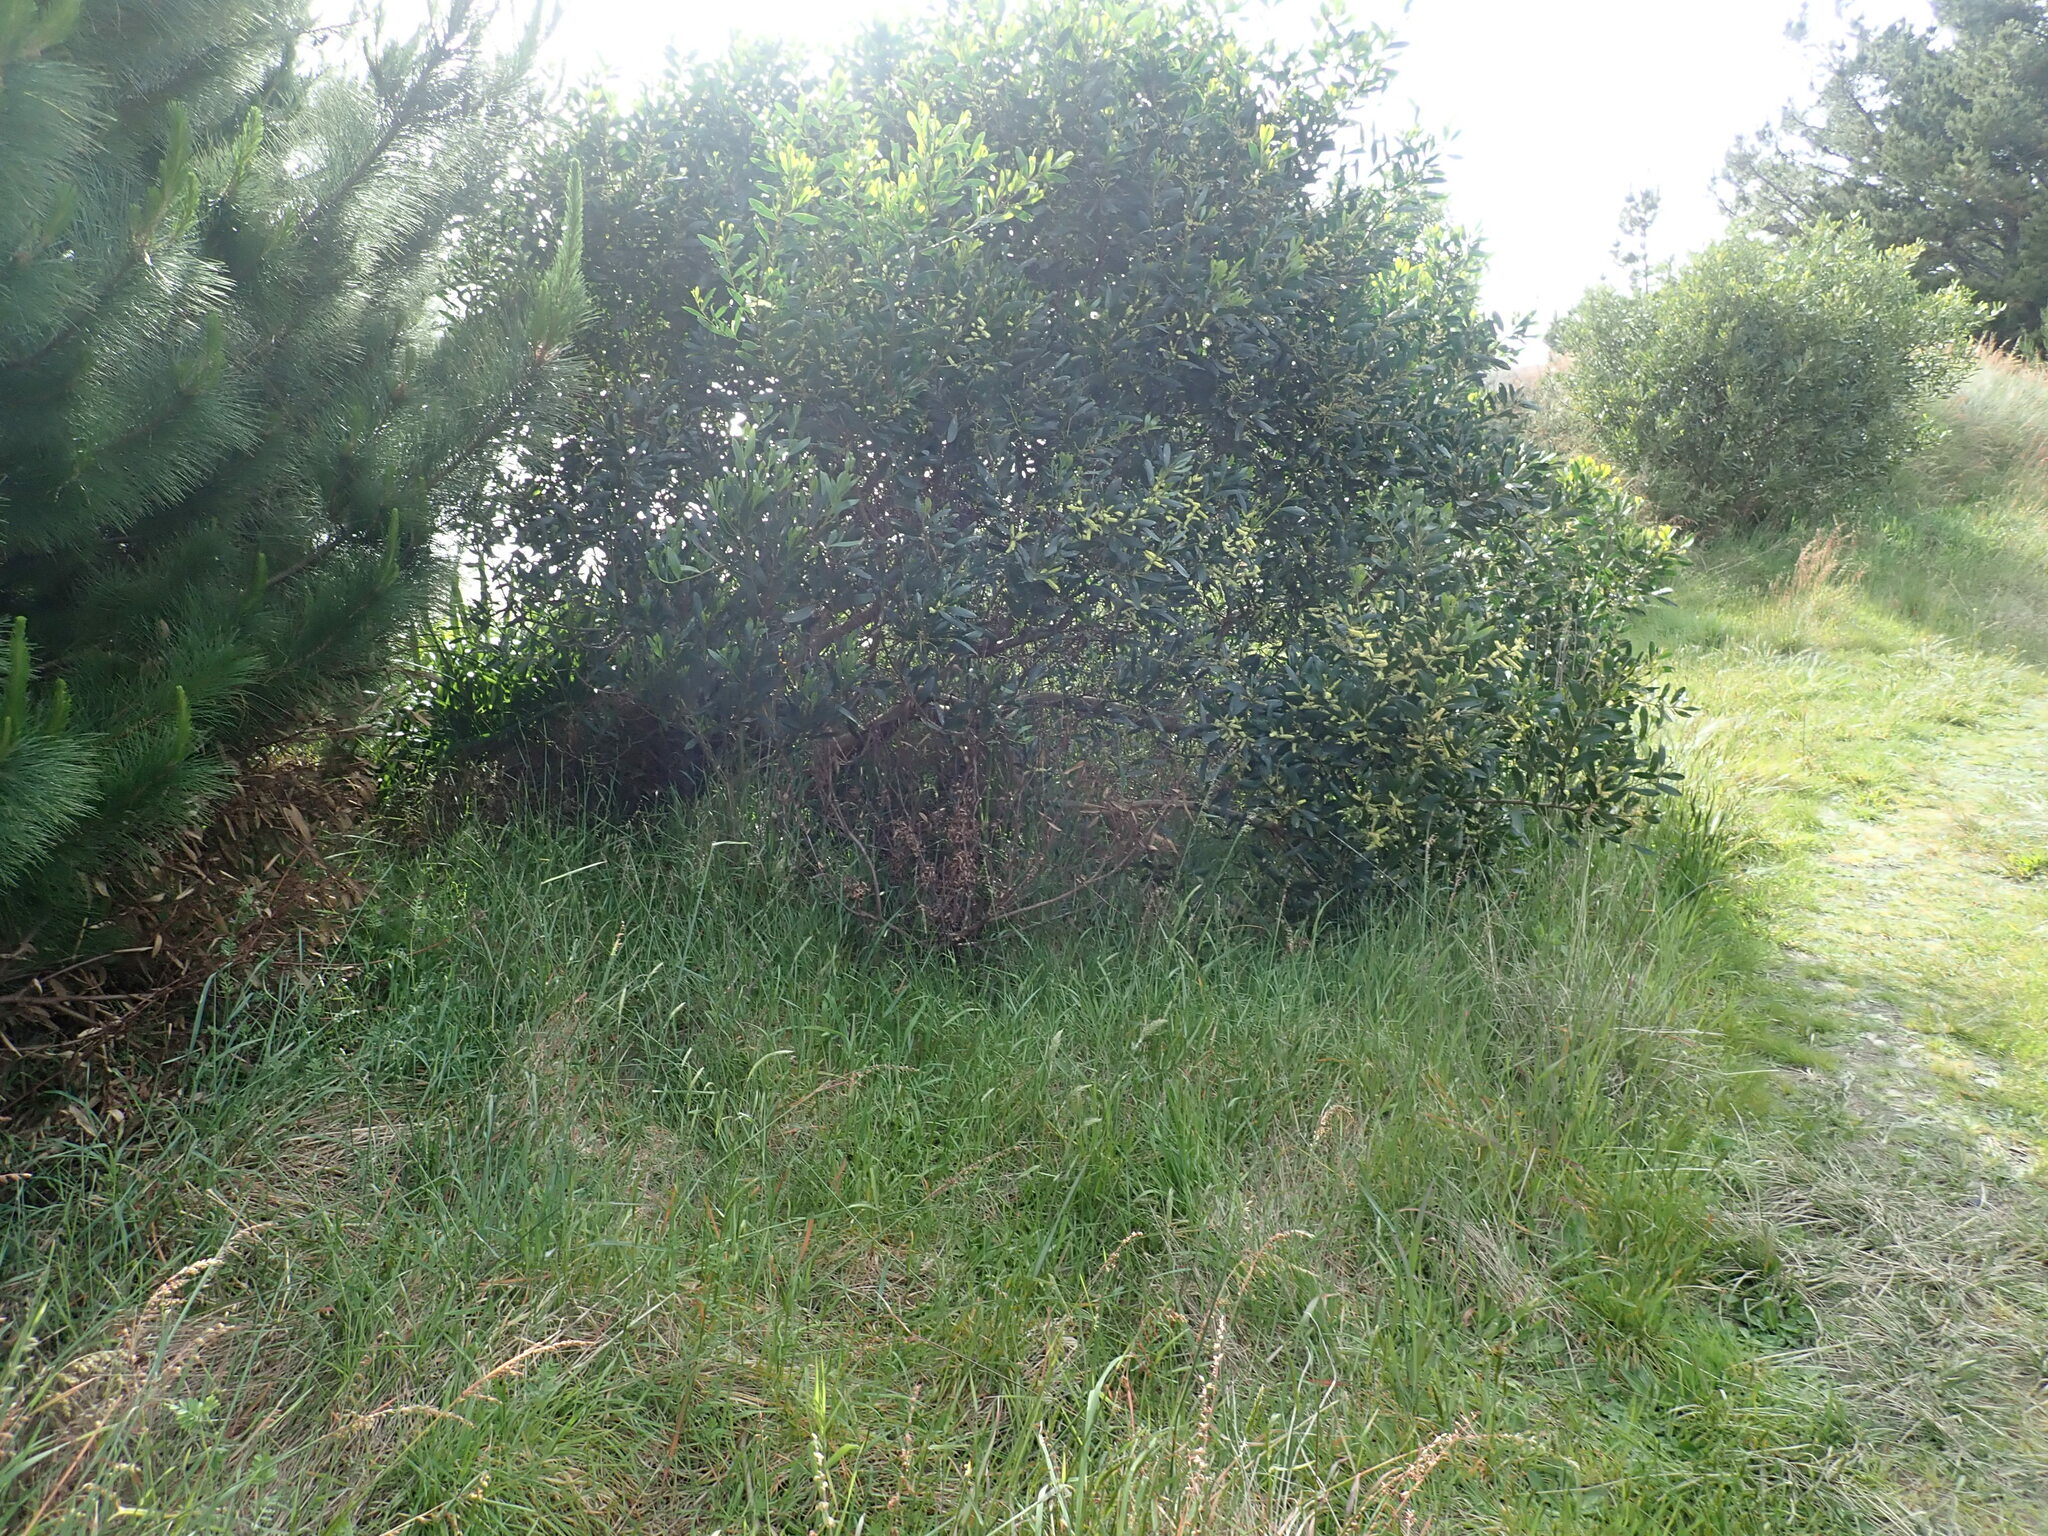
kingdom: Plantae
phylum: Tracheophyta
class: Magnoliopsida
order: Fabales
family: Fabaceae
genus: Acacia
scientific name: Acacia longifolia
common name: Sydney golden wattle
